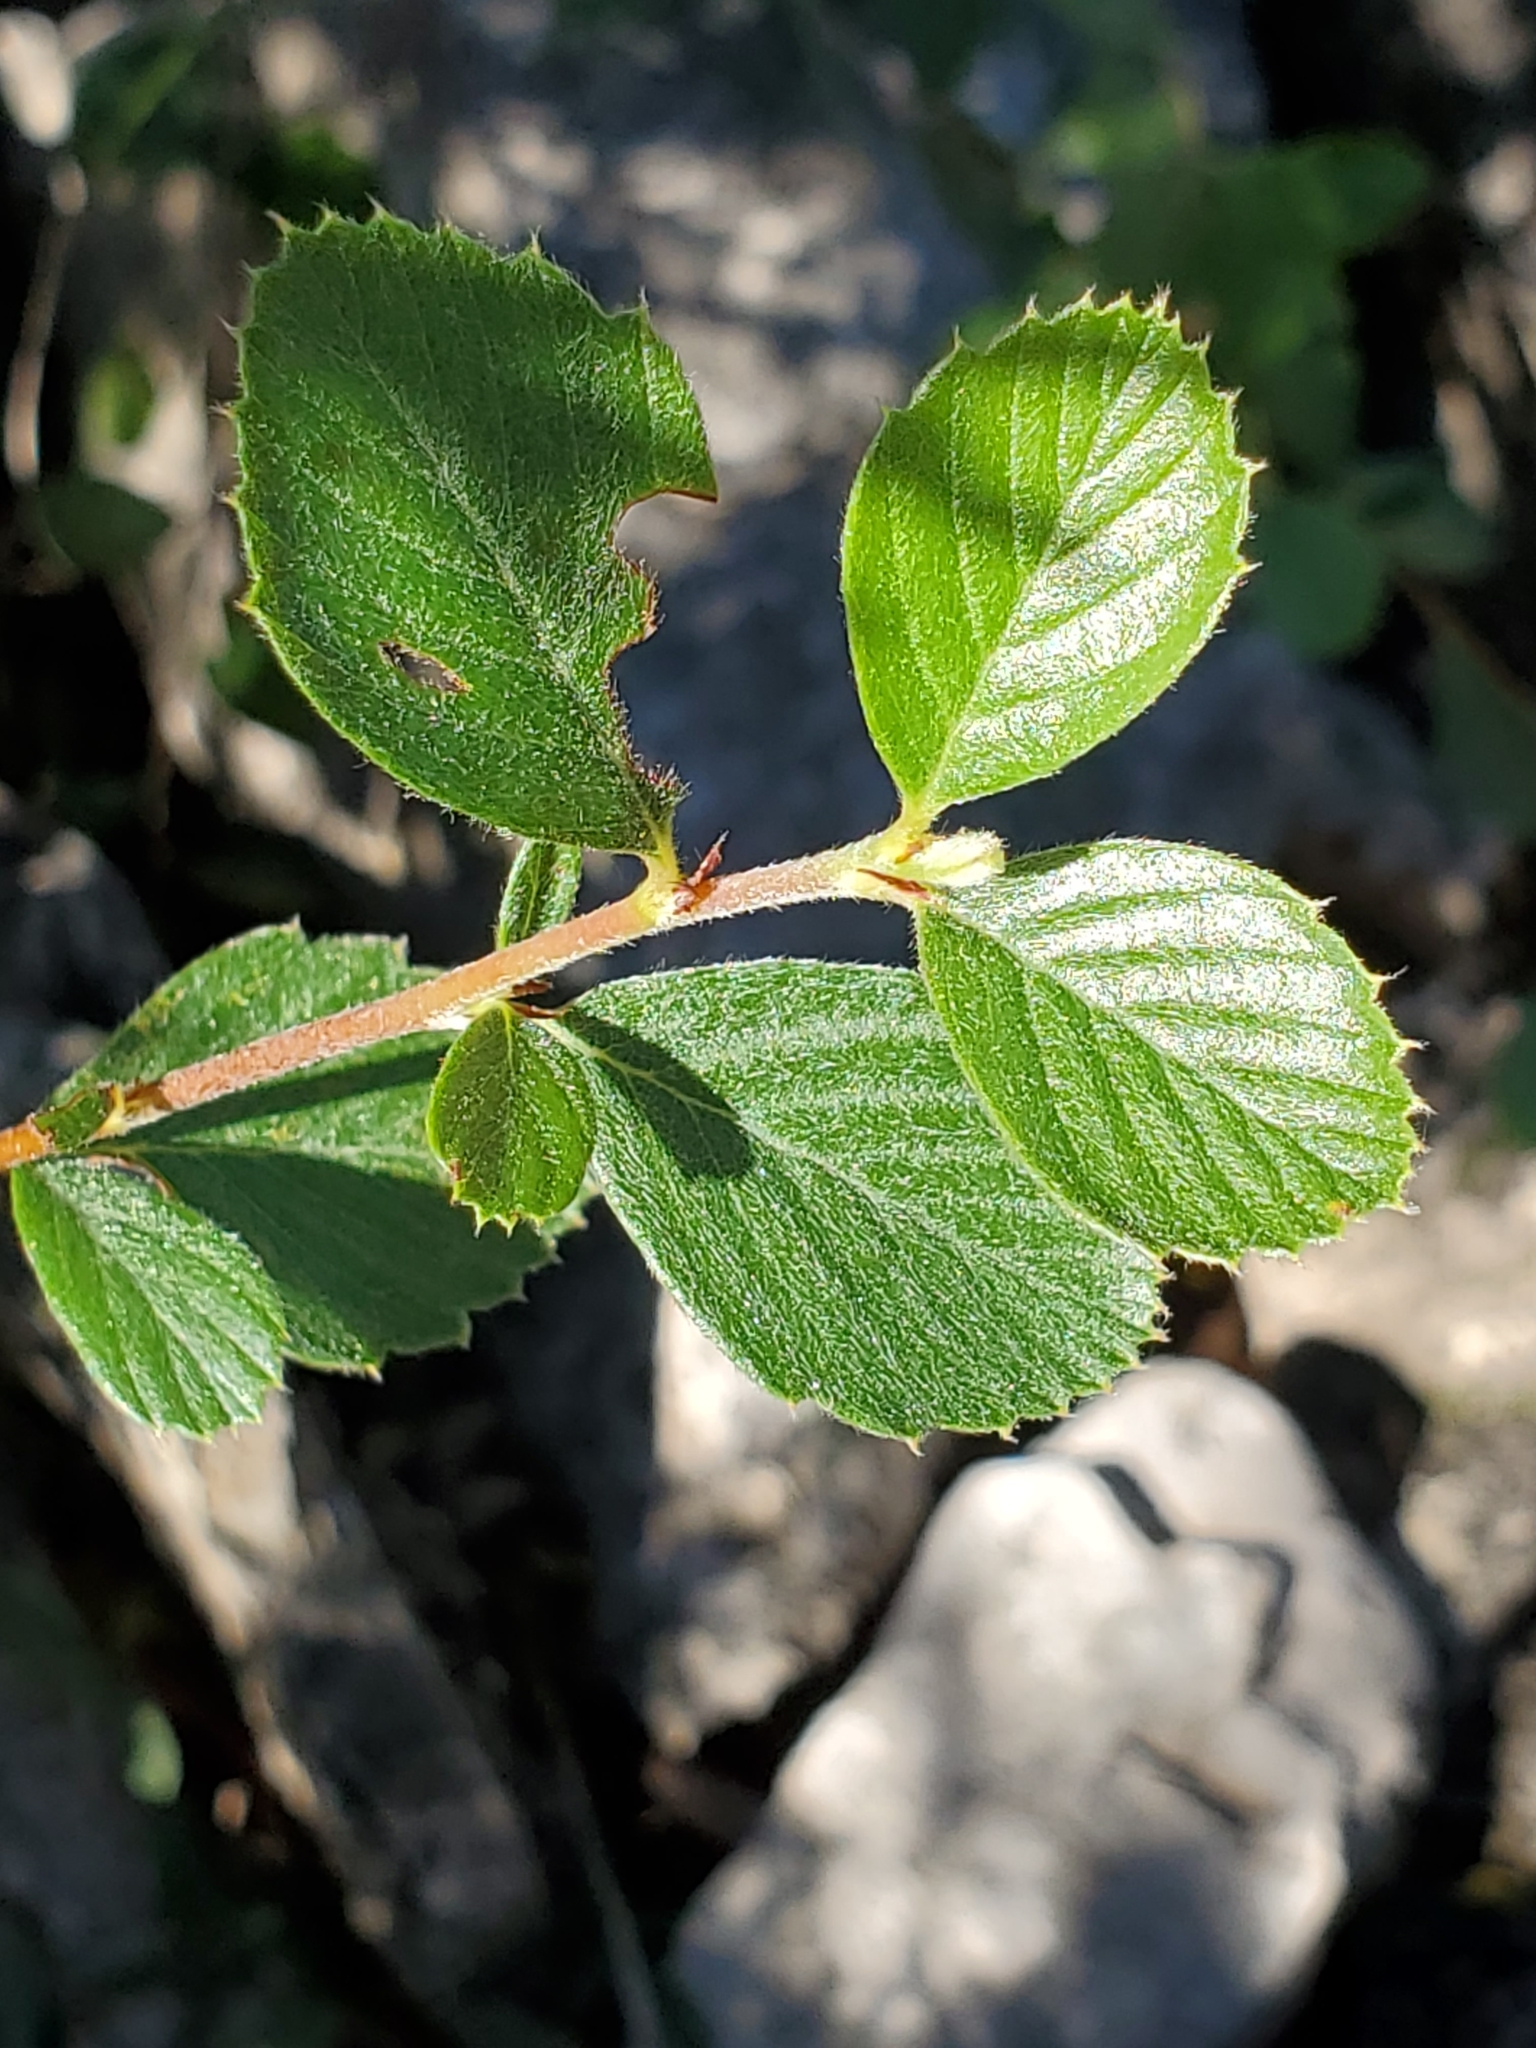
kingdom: Plantae
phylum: Tracheophyta
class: Magnoliopsida
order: Rosales
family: Rosaceae
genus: Cercocarpus
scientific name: Cercocarpus montanus
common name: Alder-leaf cercocarpus
